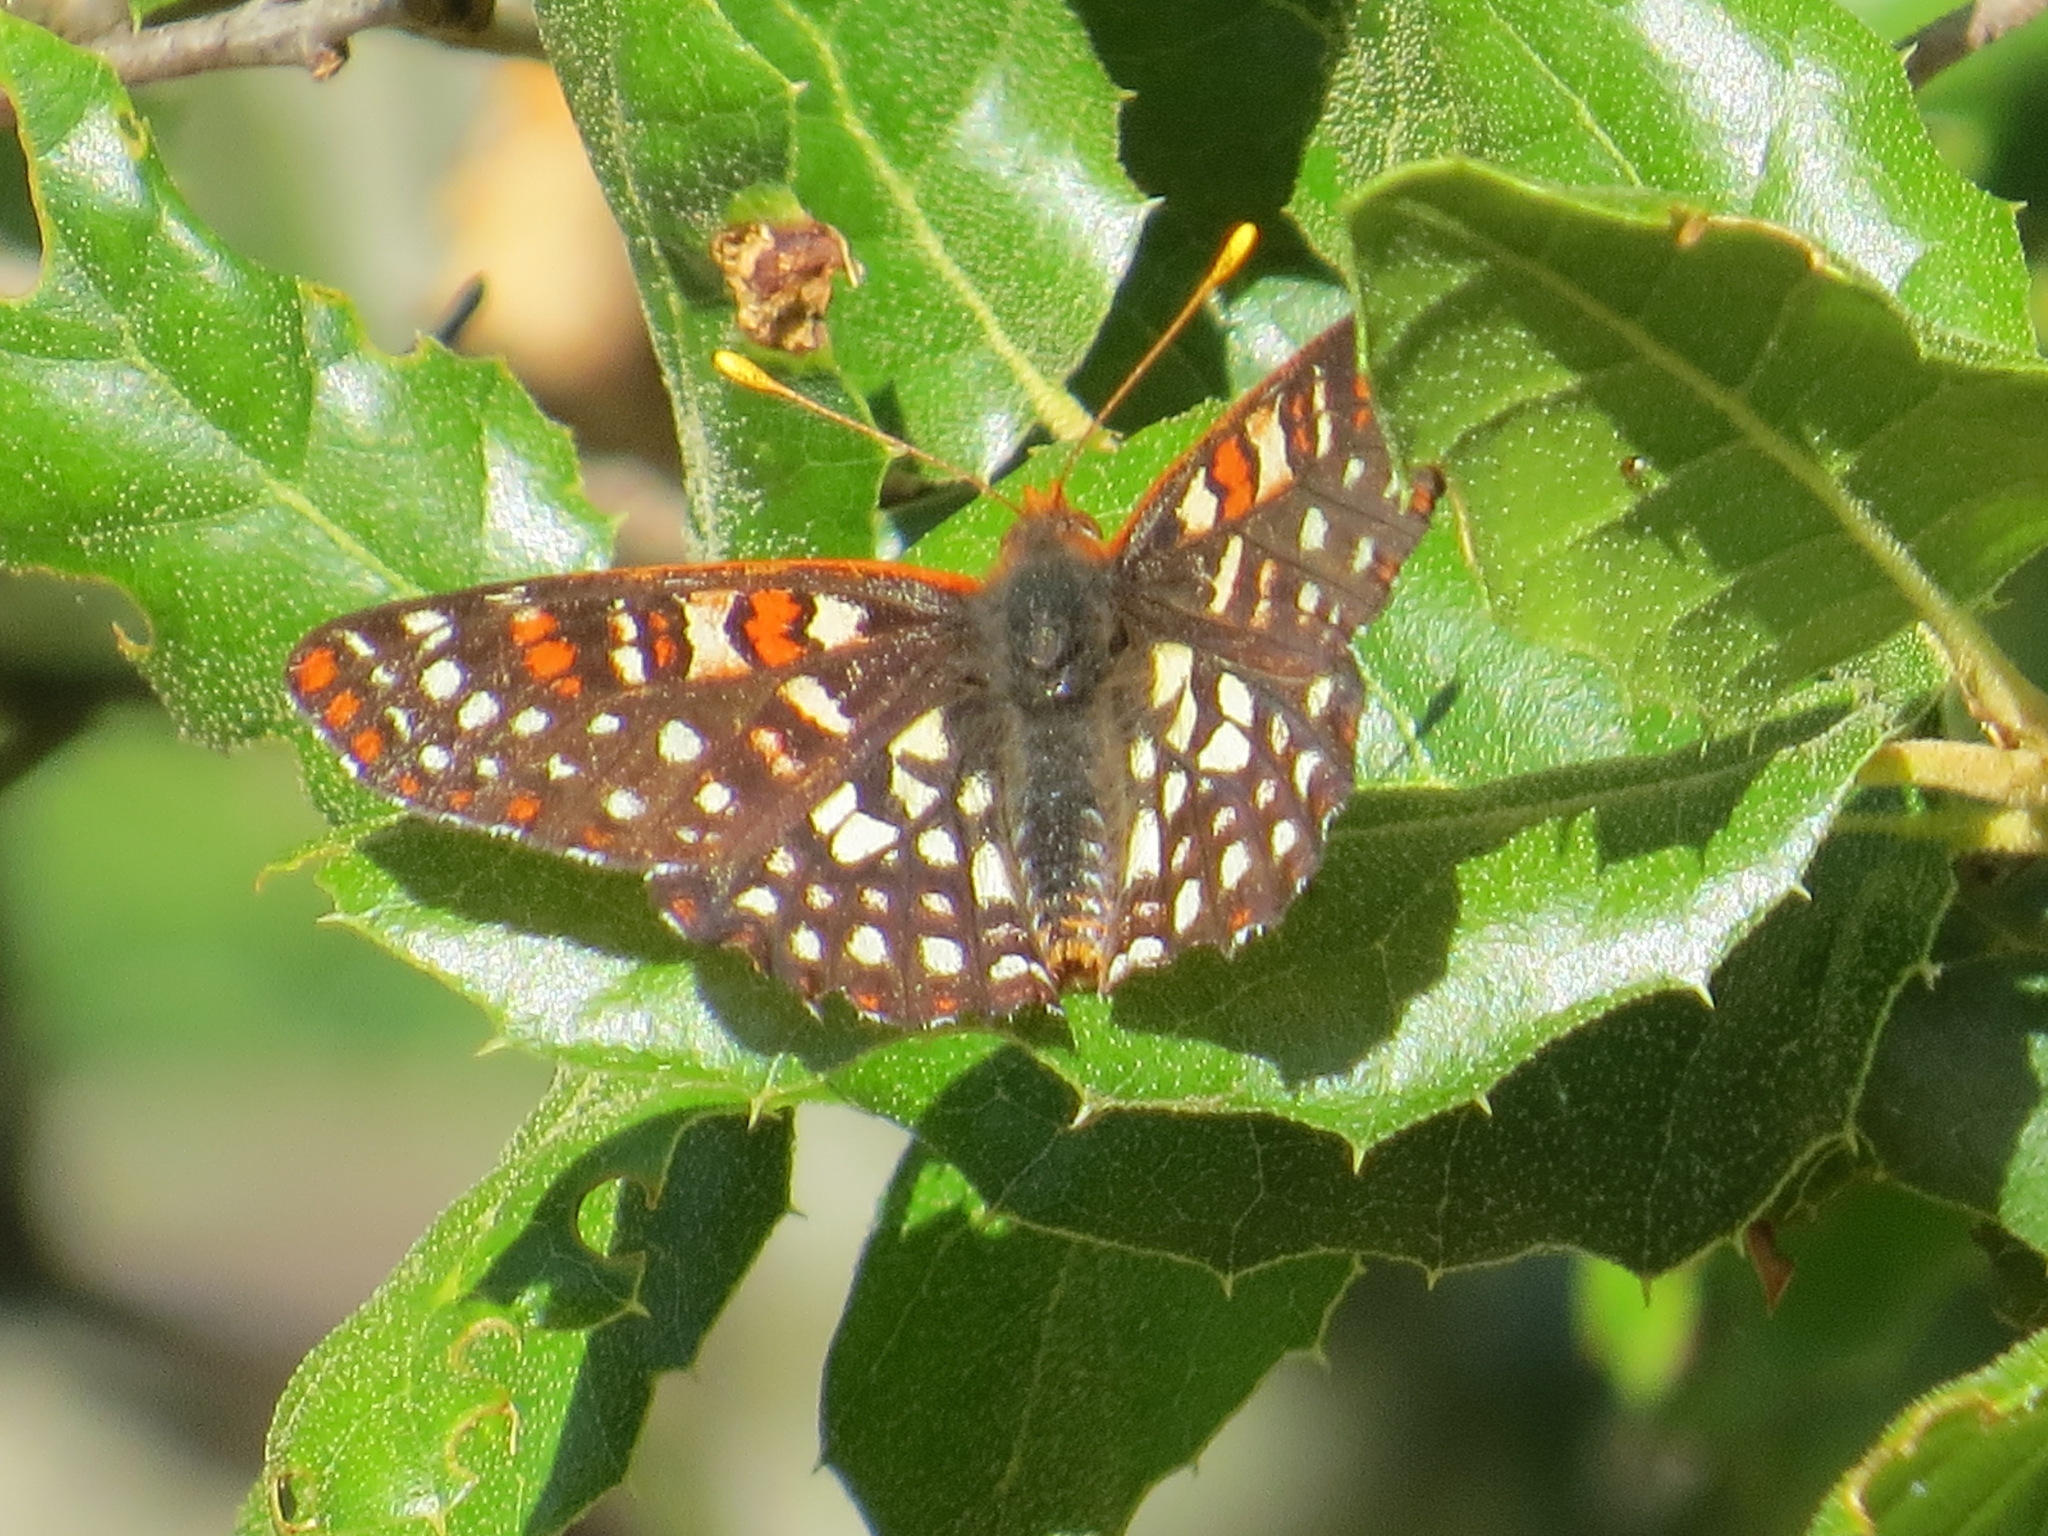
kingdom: Animalia
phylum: Arthropoda
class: Insecta
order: Lepidoptera
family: Nymphalidae
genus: Occidryas
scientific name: Occidryas chalcedona
